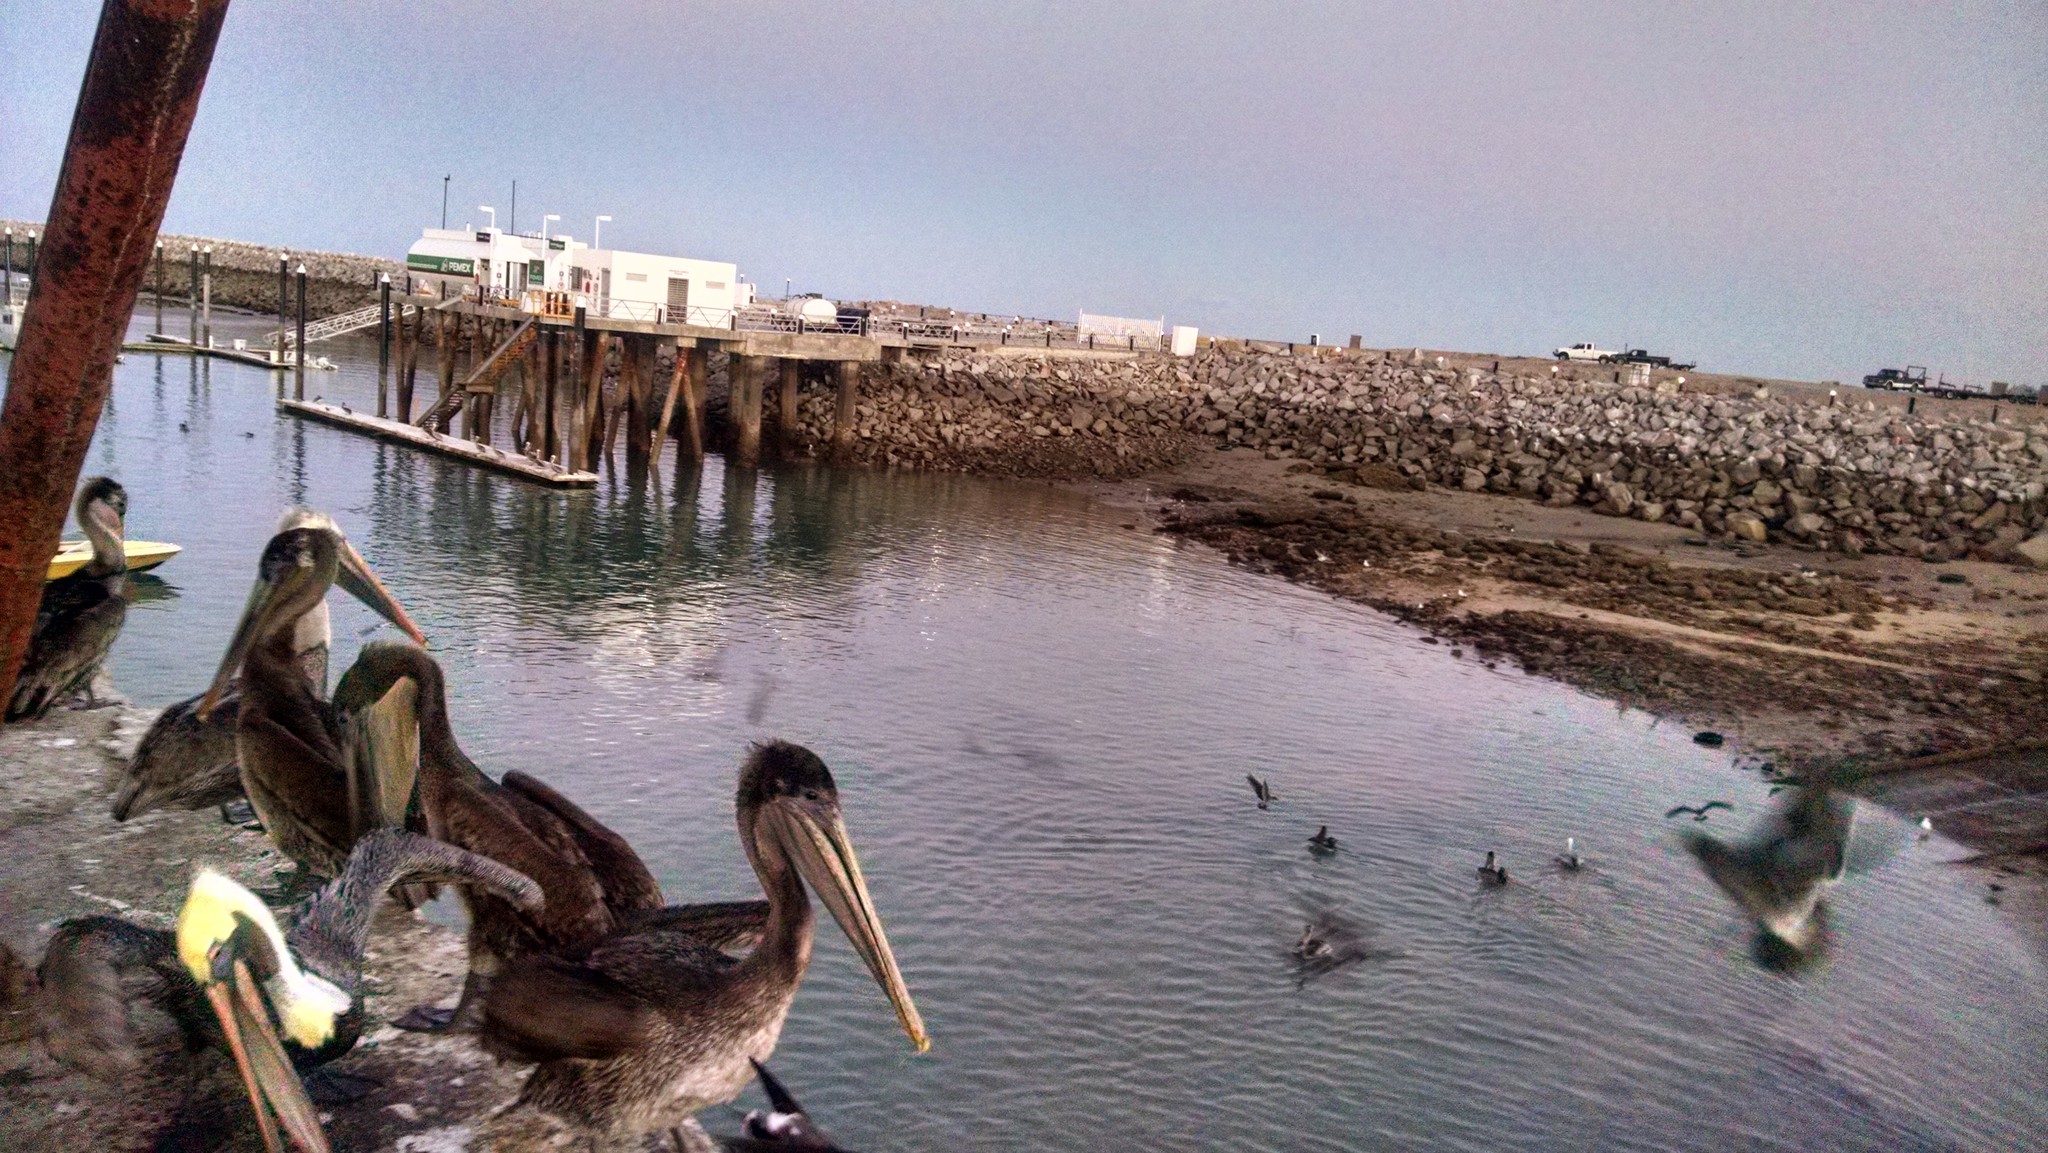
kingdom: Animalia
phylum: Chordata
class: Aves
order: Pelecaniformes
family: Pelecanidae
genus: Pelecanus
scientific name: Pelecanus occidentalis
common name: Brown pelican
